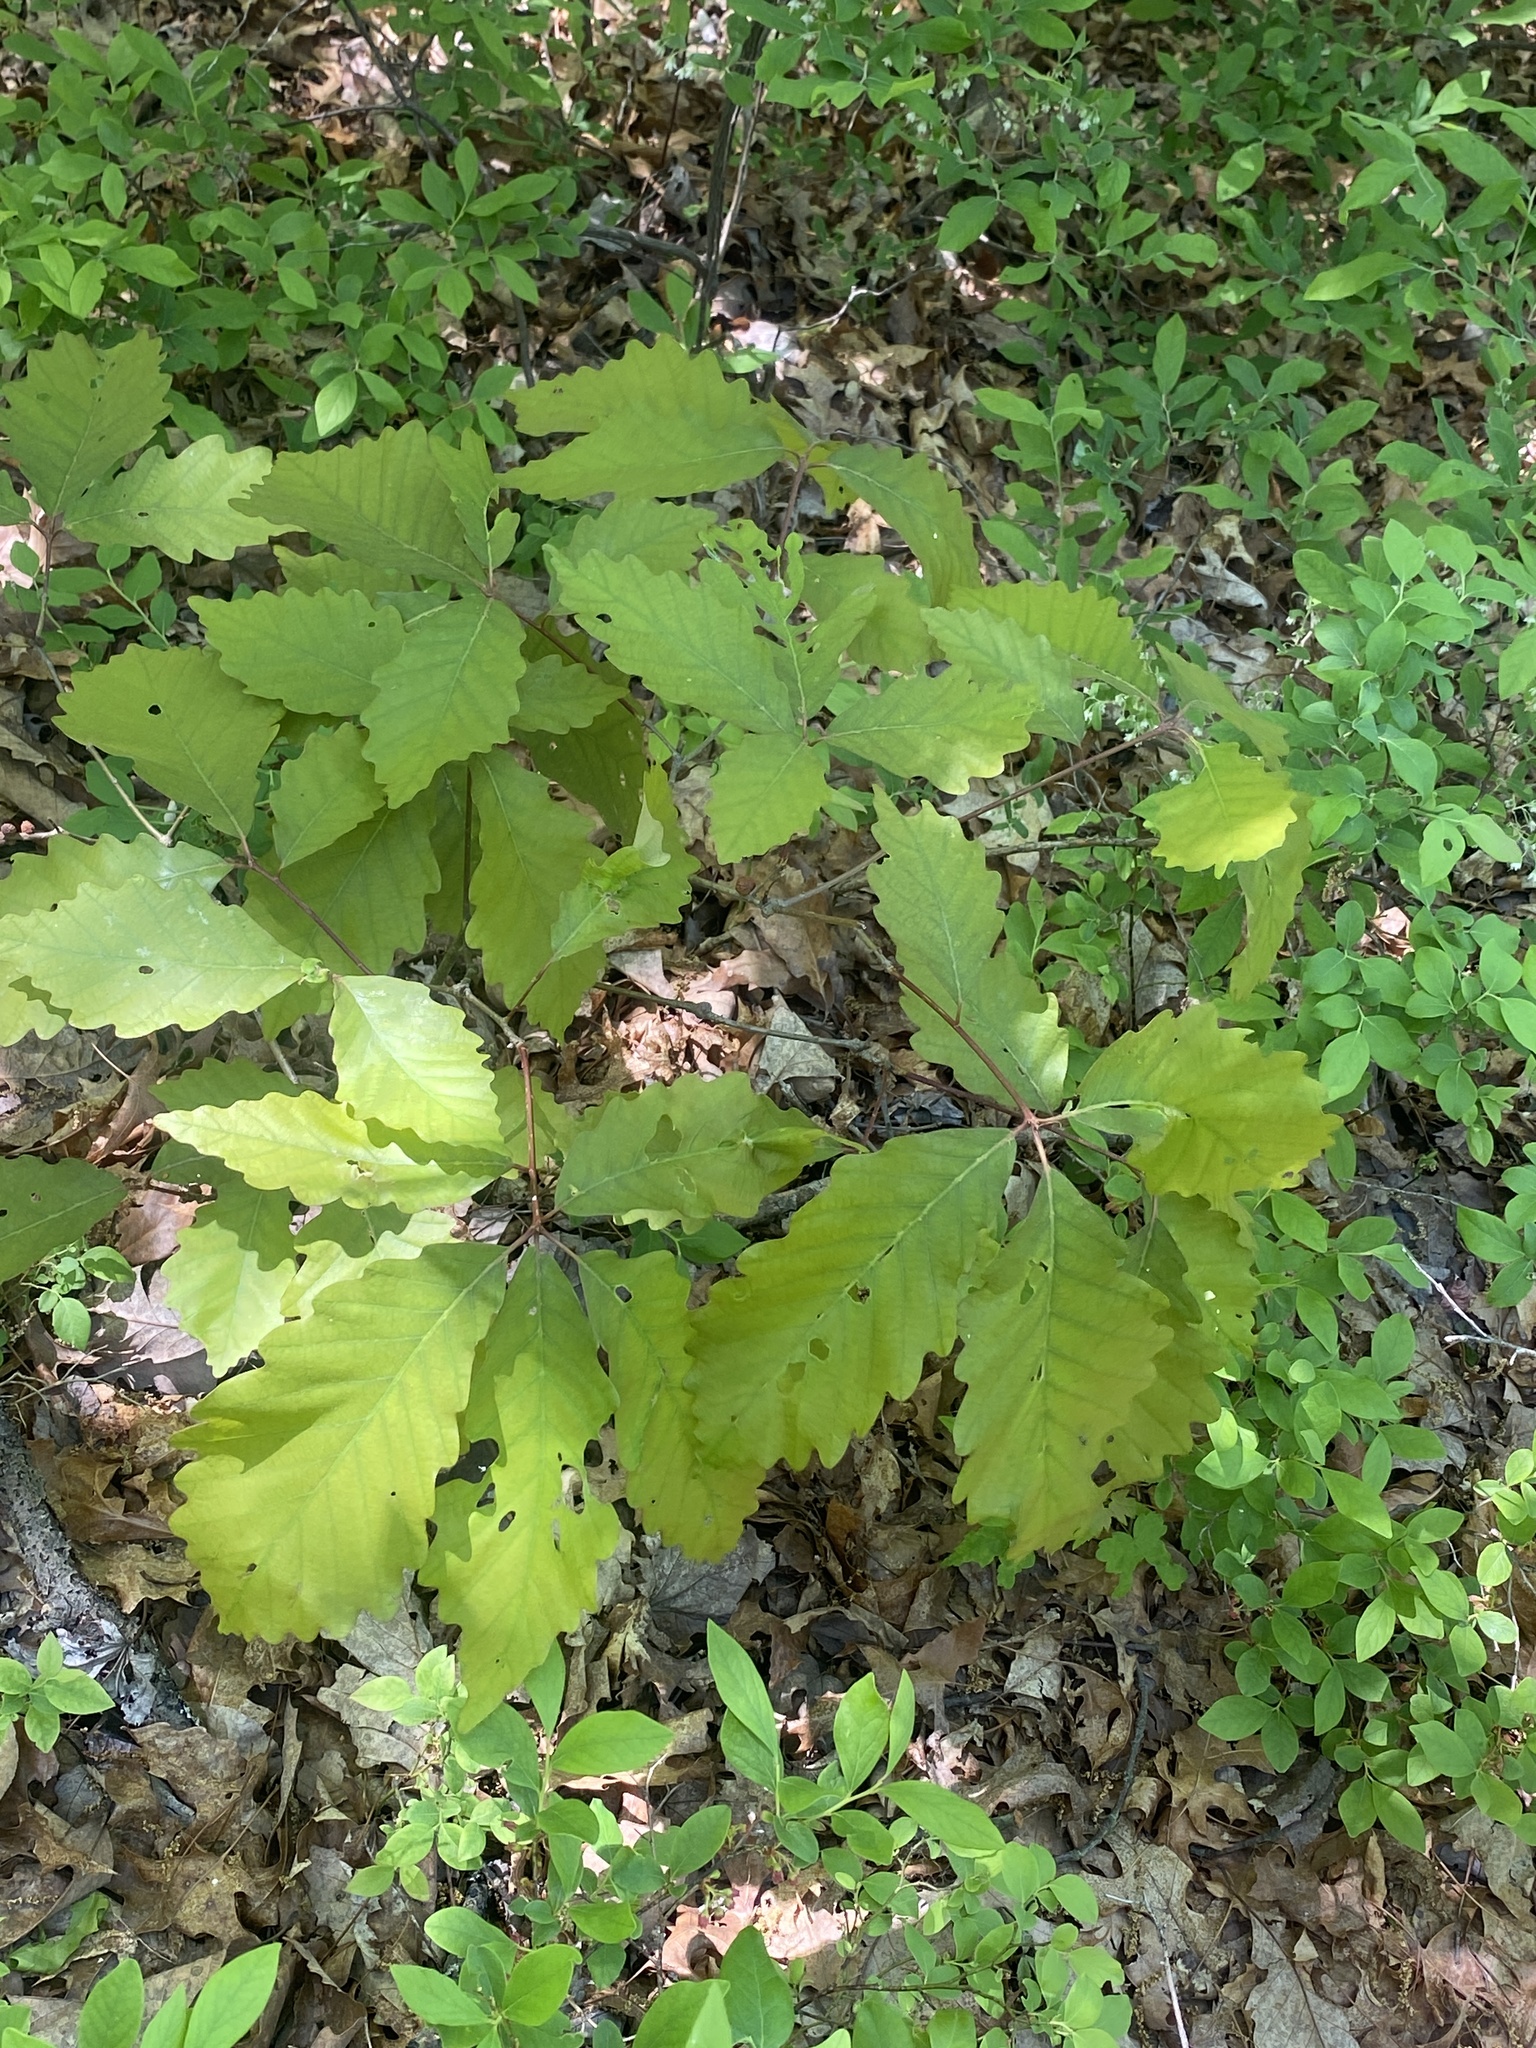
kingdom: Plantae
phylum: Tracheophyta
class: Magnoliopsida
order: Fagales
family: Fagaceae
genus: Quercus
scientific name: Quercus montana
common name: Chestnut oak
